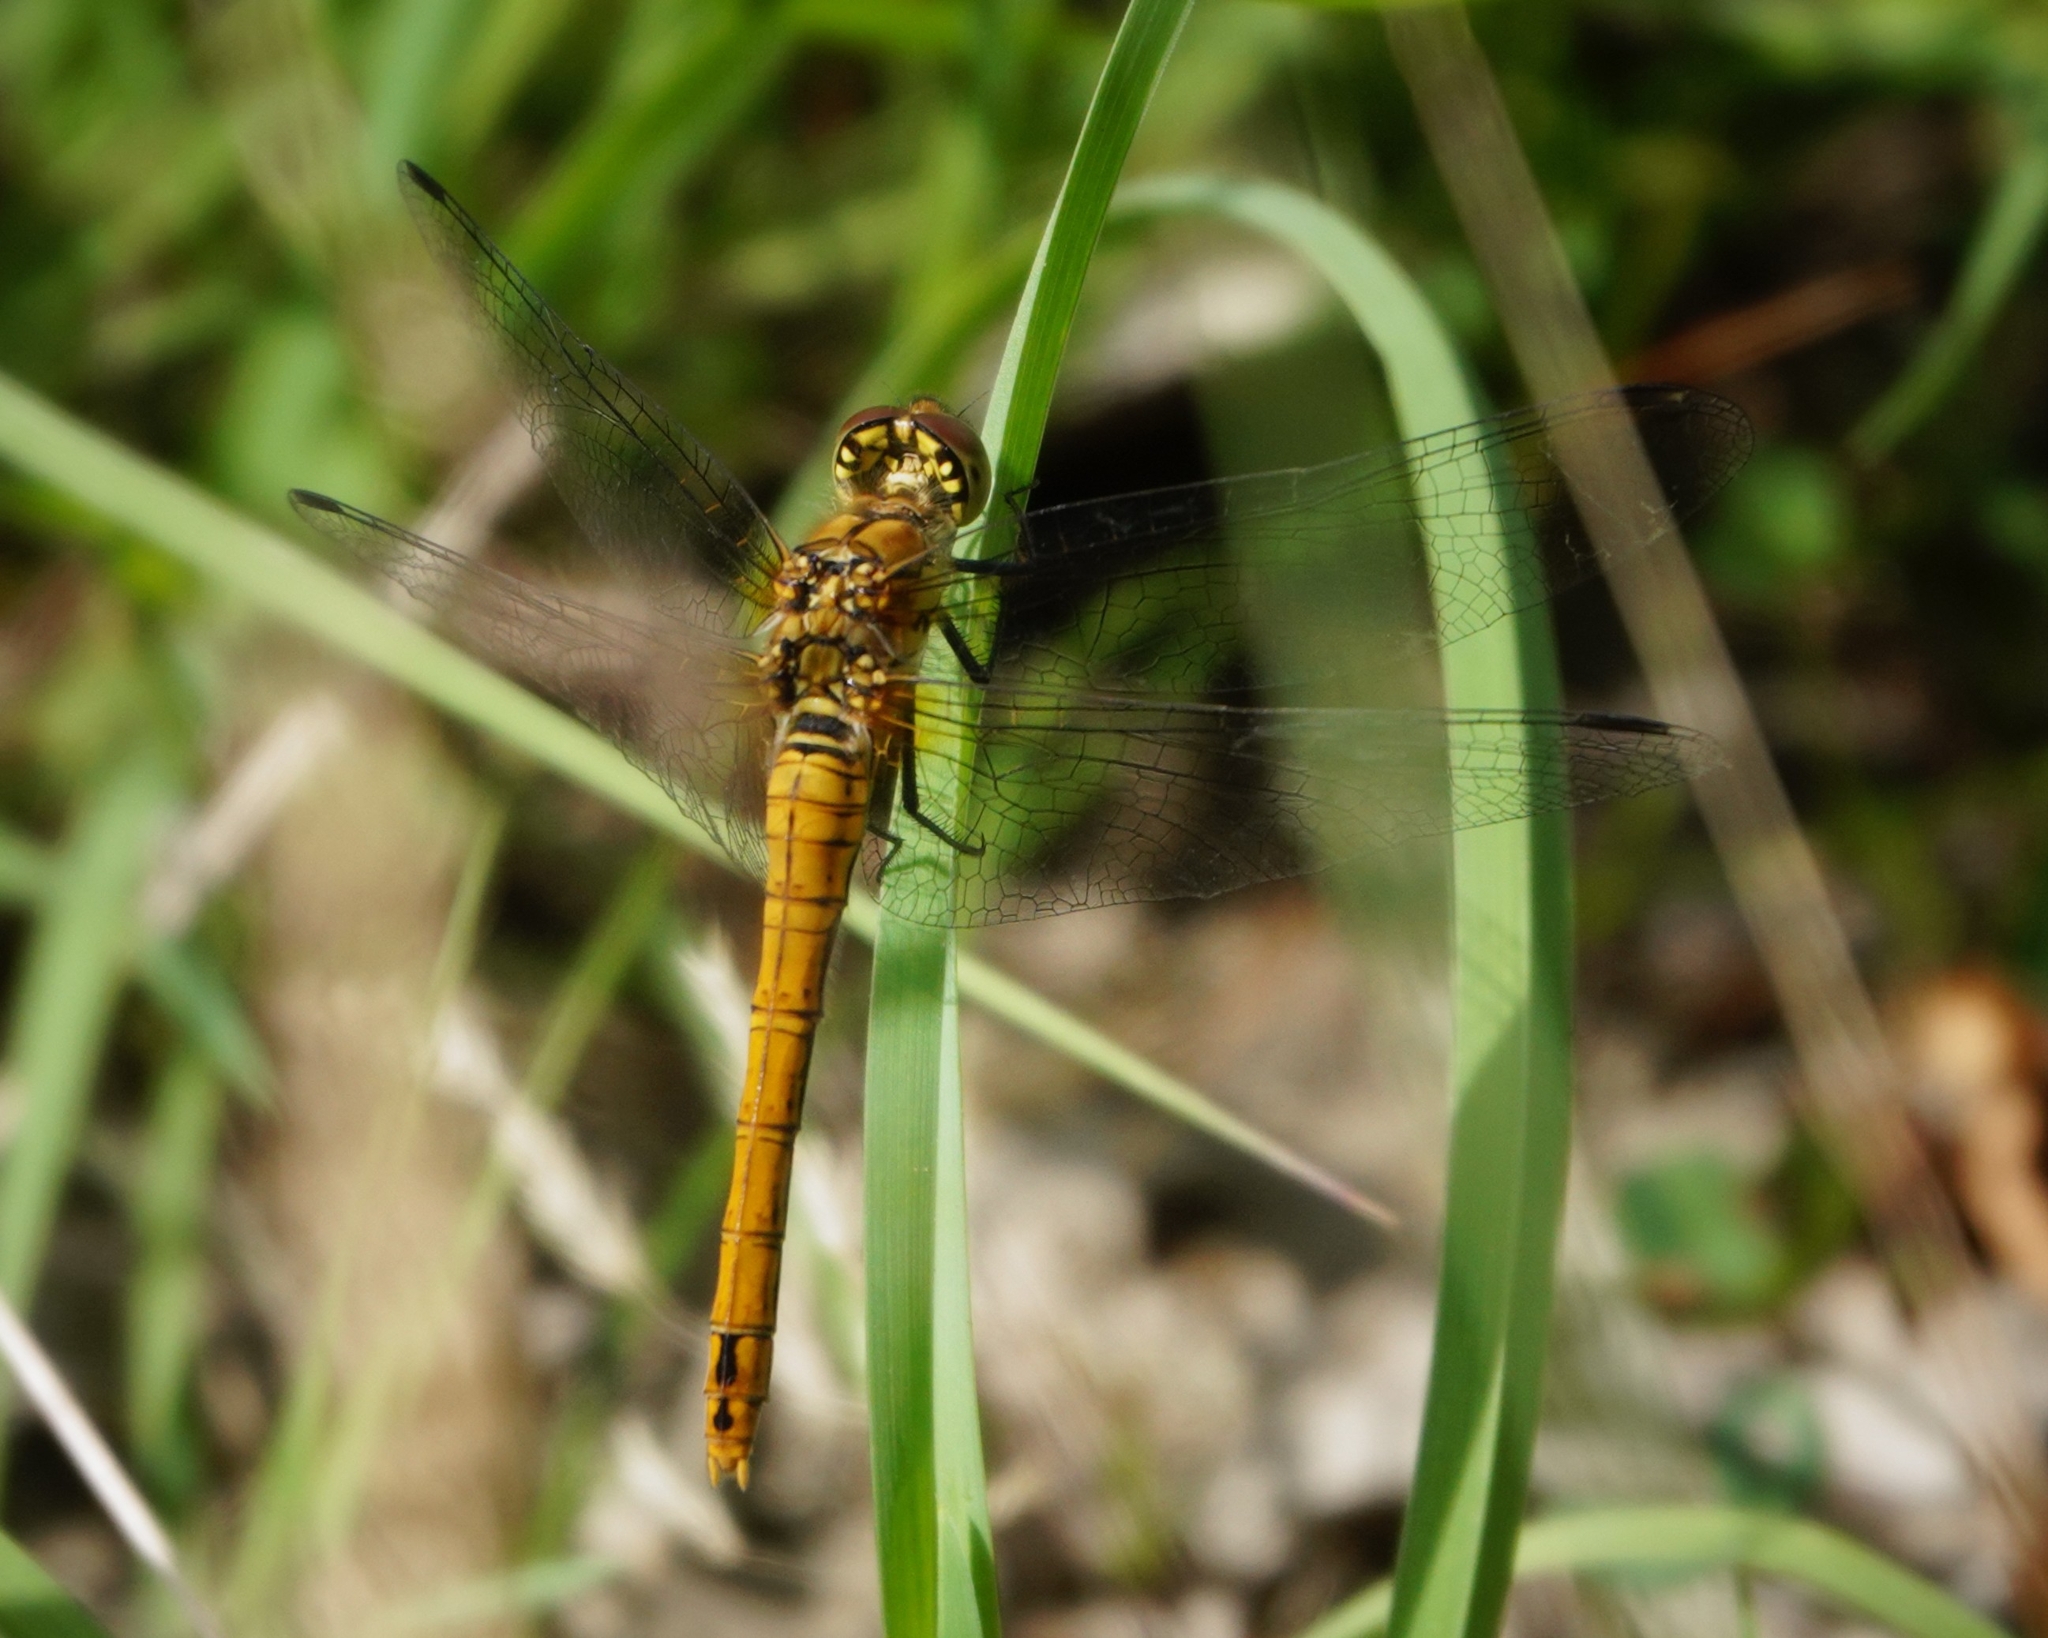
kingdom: Animalia
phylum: Arthropoda
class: Insecta
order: Odonata
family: Libellulidae
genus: Sympetrum
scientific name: Sympetrum sanguineum
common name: Ruddy darter
